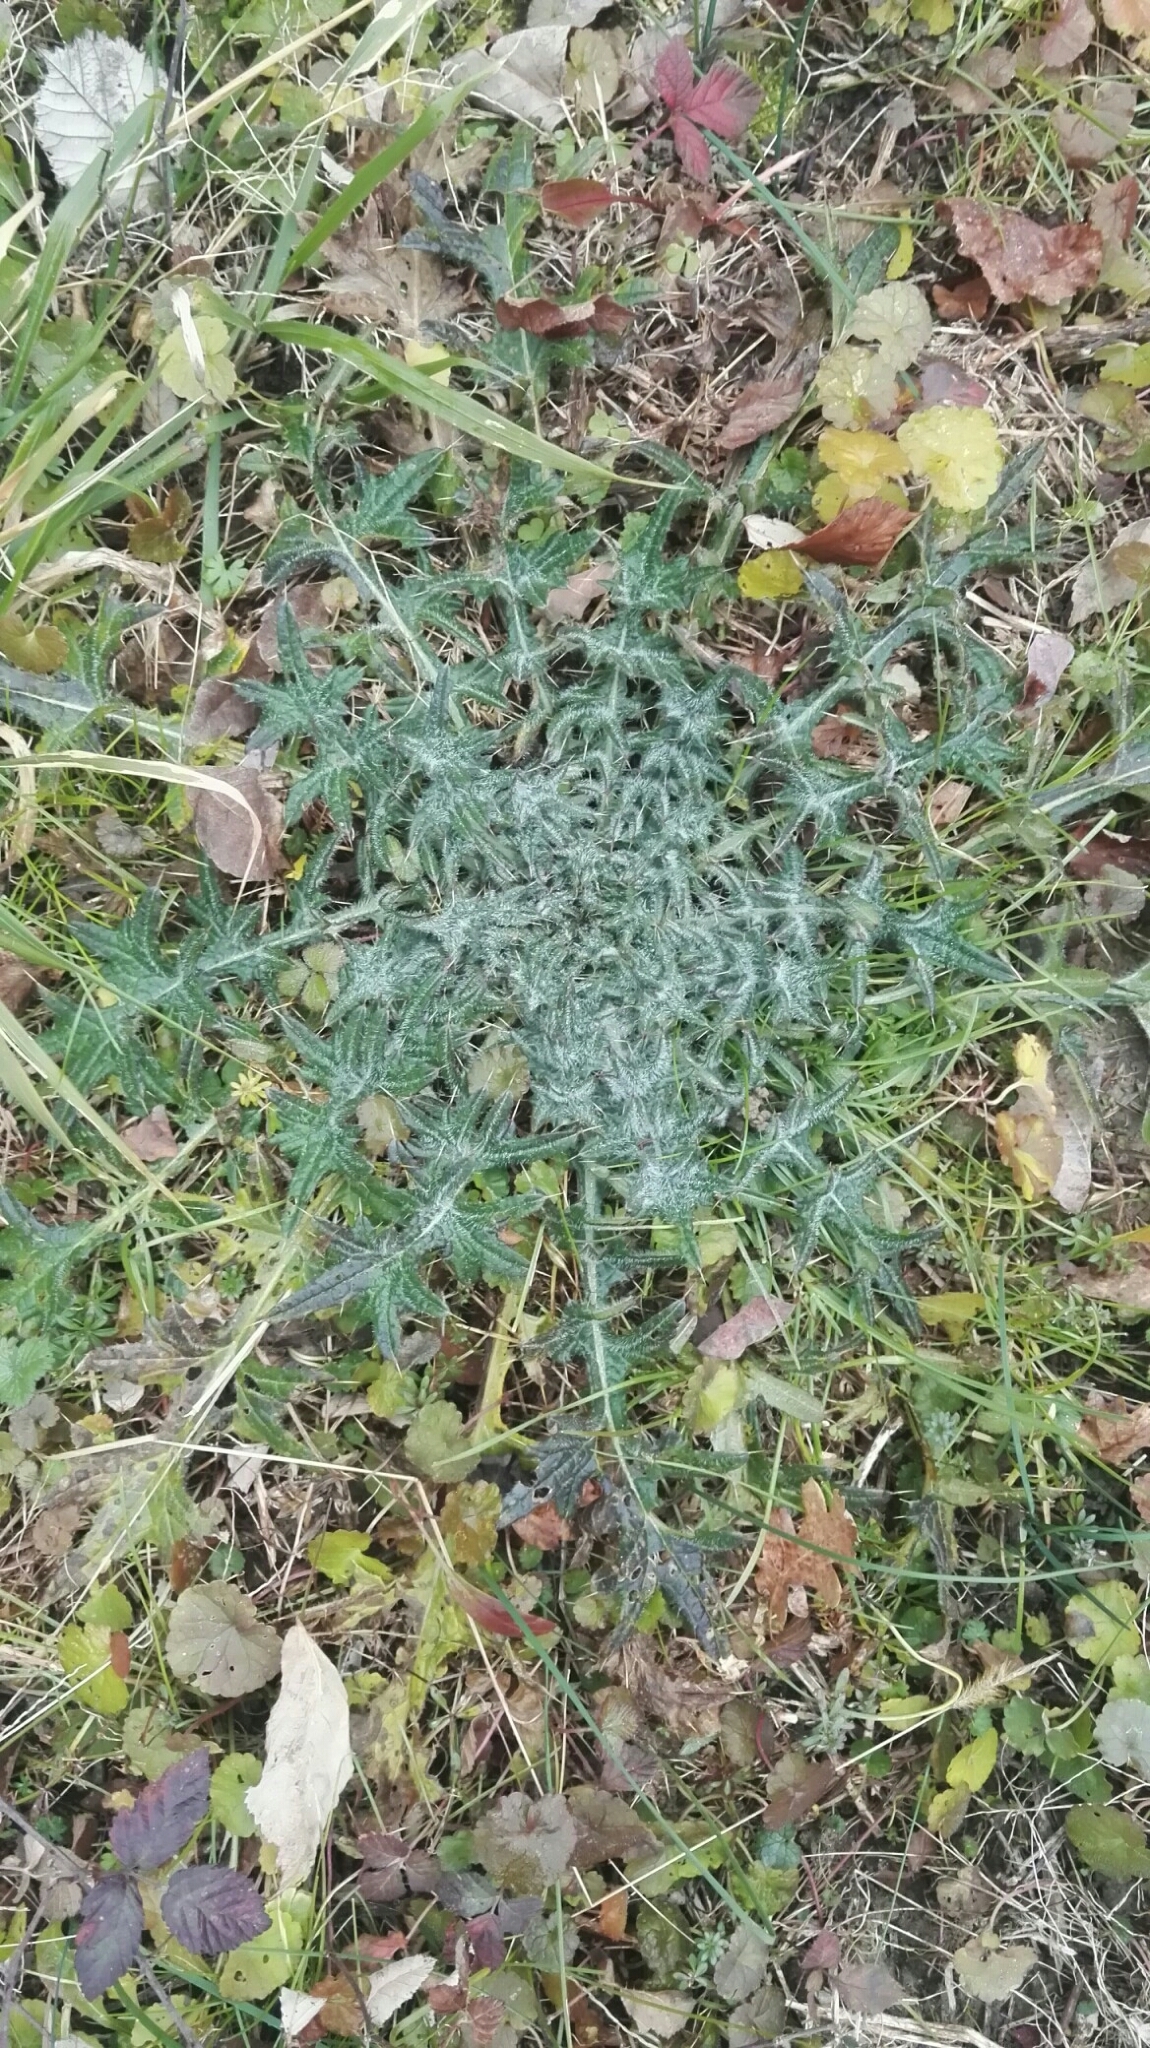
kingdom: Plantae
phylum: Tracheophyta
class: Magnoliopsida
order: Asterales
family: Asteraceae
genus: Cirsium
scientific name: Cirsium vulgare
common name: Bull thistle
